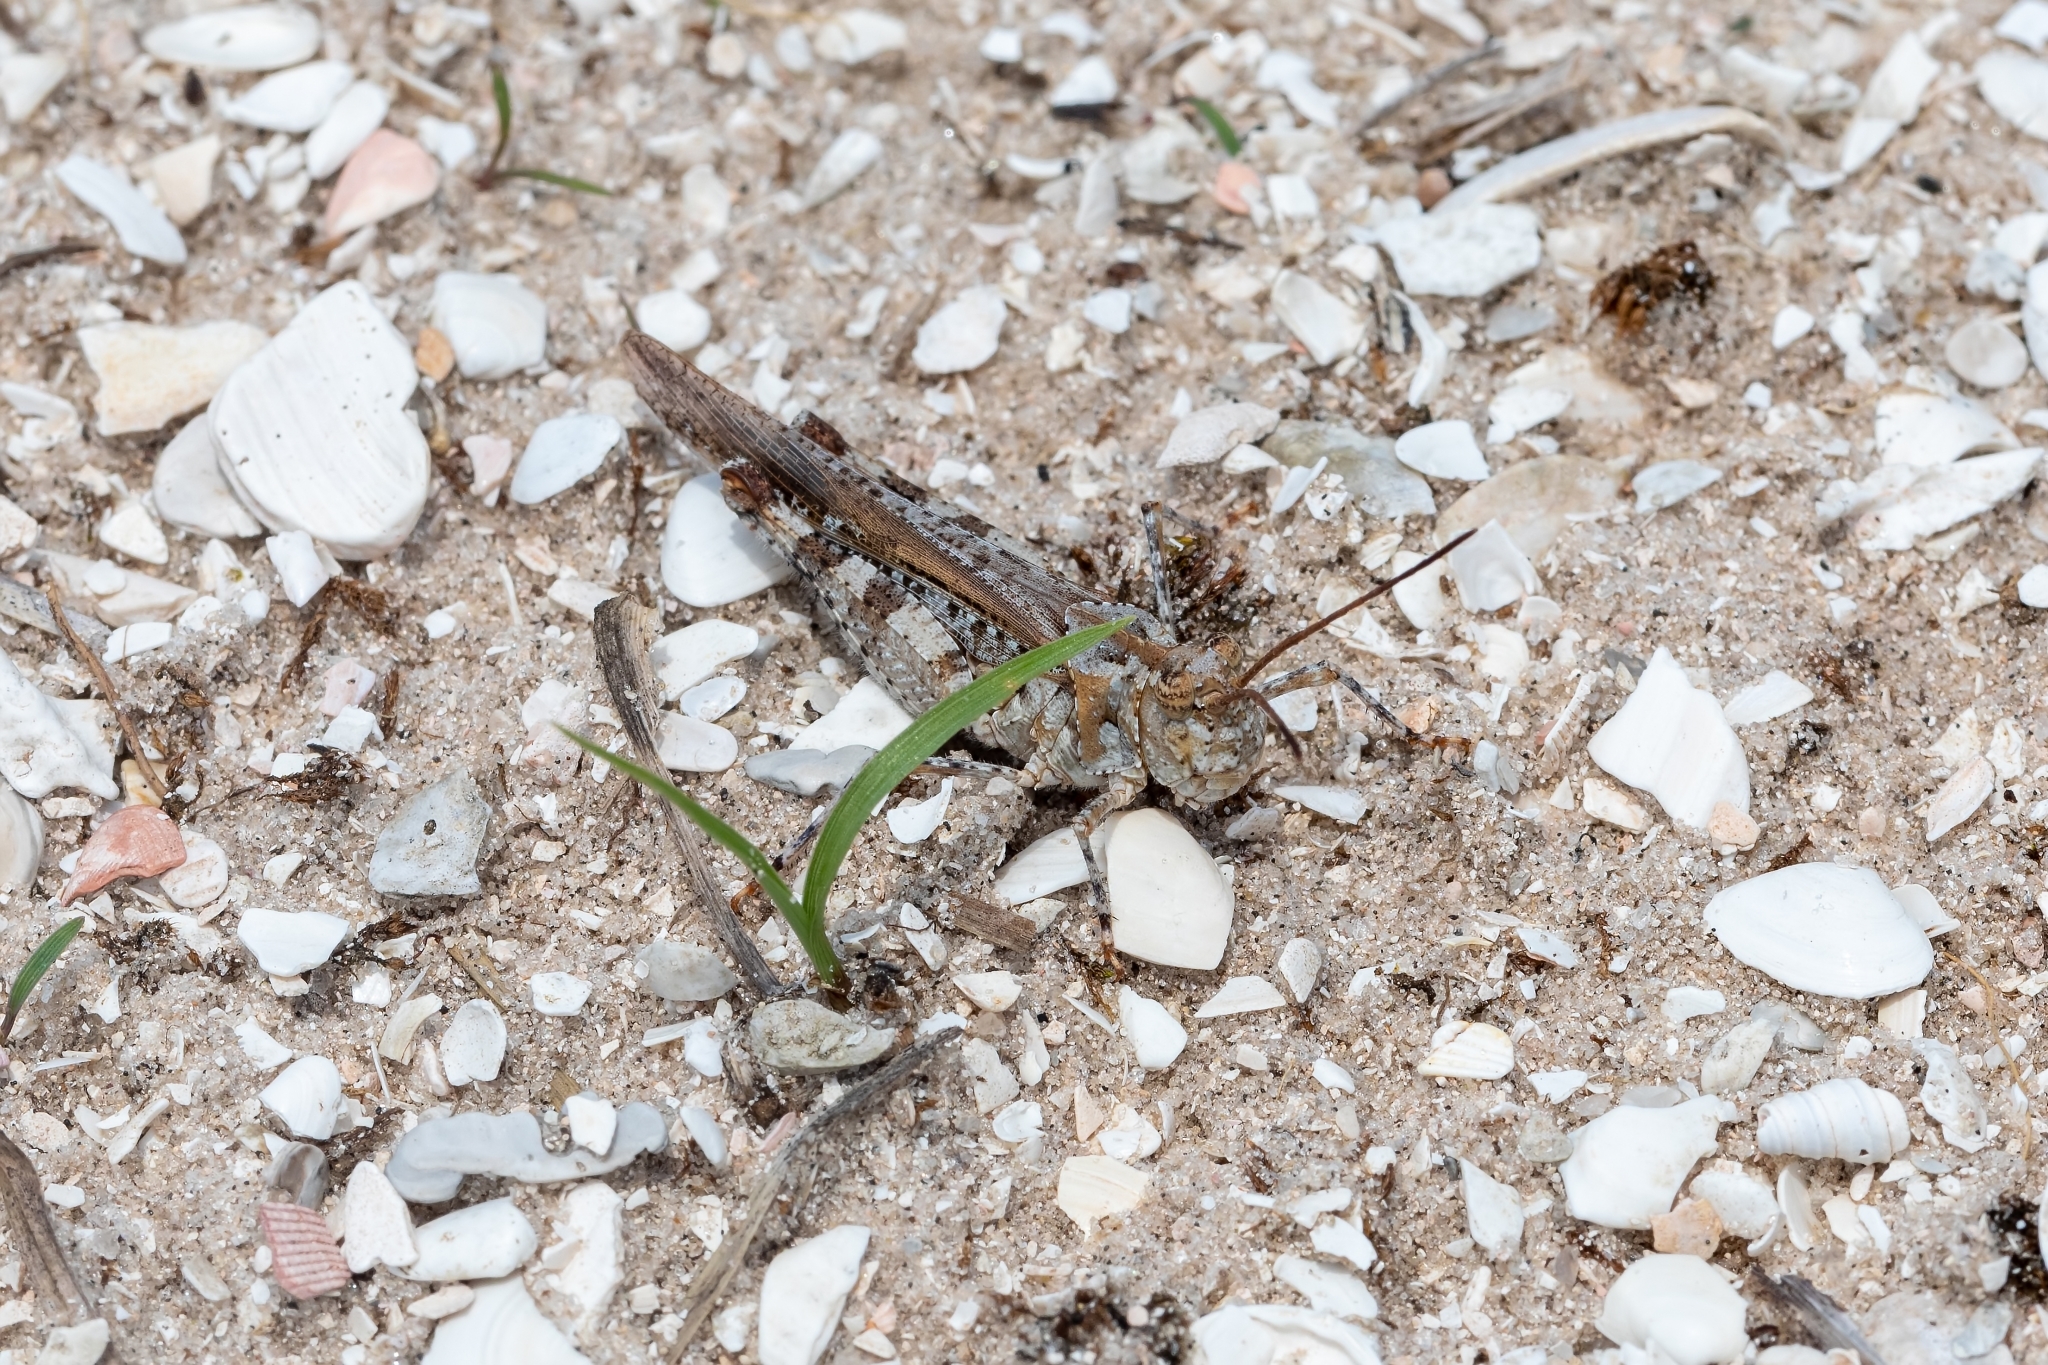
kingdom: Animalia
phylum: Arthropoda
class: Insecta
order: Orthoptera
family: Acrididae
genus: Psinidia
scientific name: Psinidia fenestralis
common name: Long-horned locust
